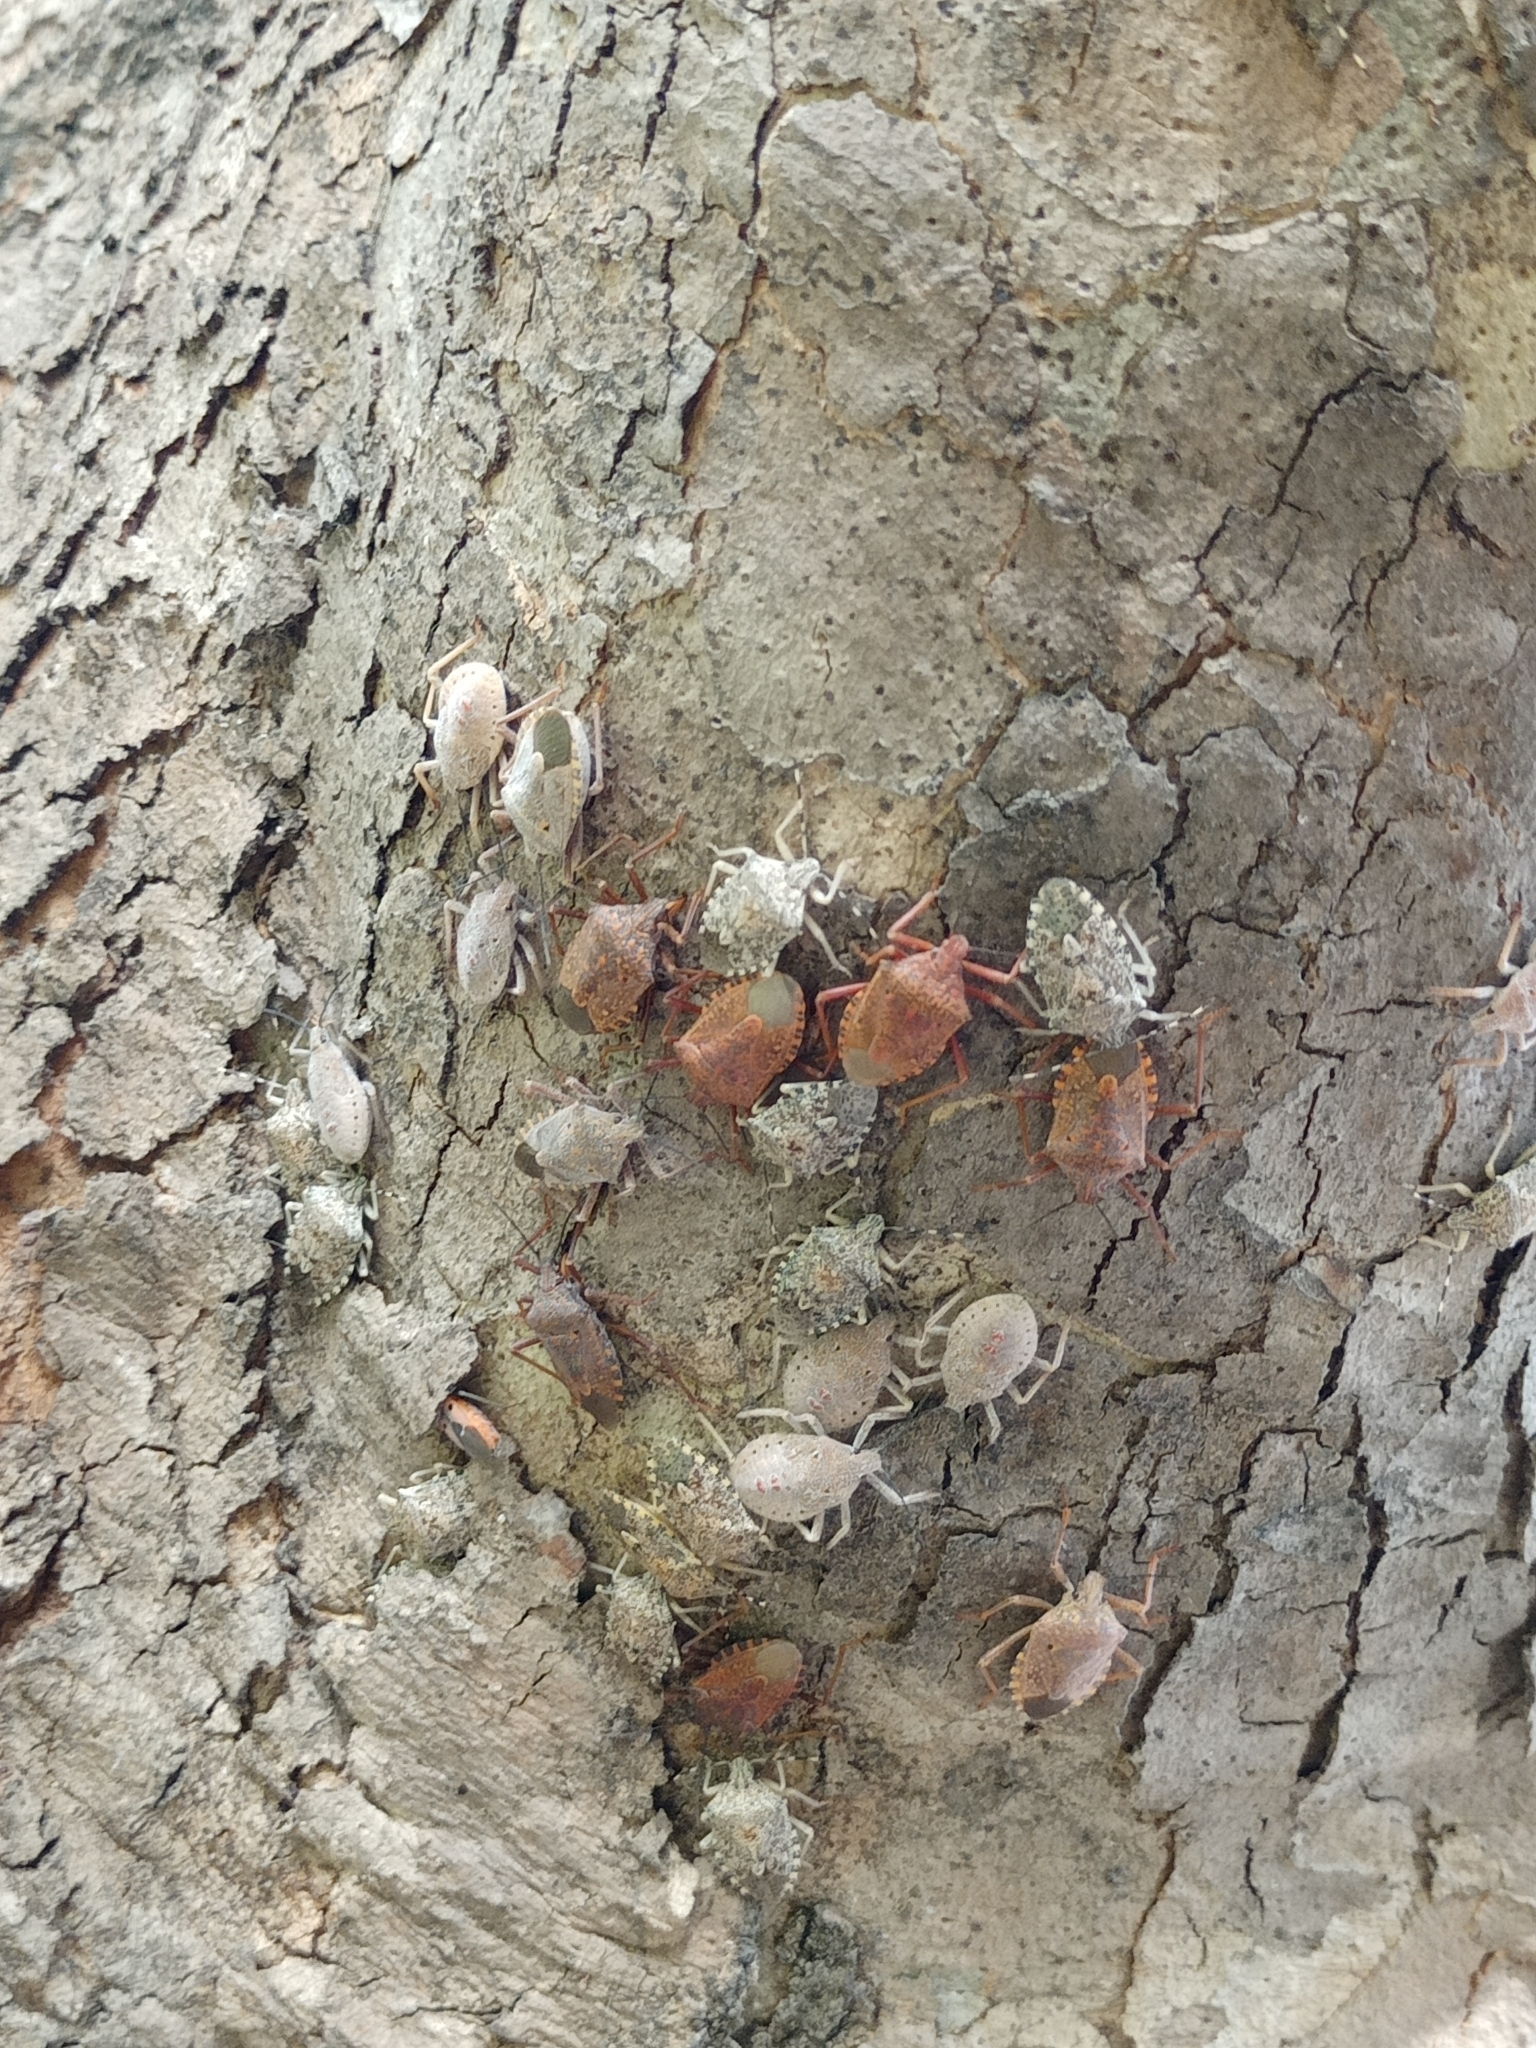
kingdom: Animalia
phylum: Arthropoda
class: Insecta
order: Hemiptera
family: Pentatomidae
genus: Rhaphigaster
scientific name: Rhaphigaster nebulosa
